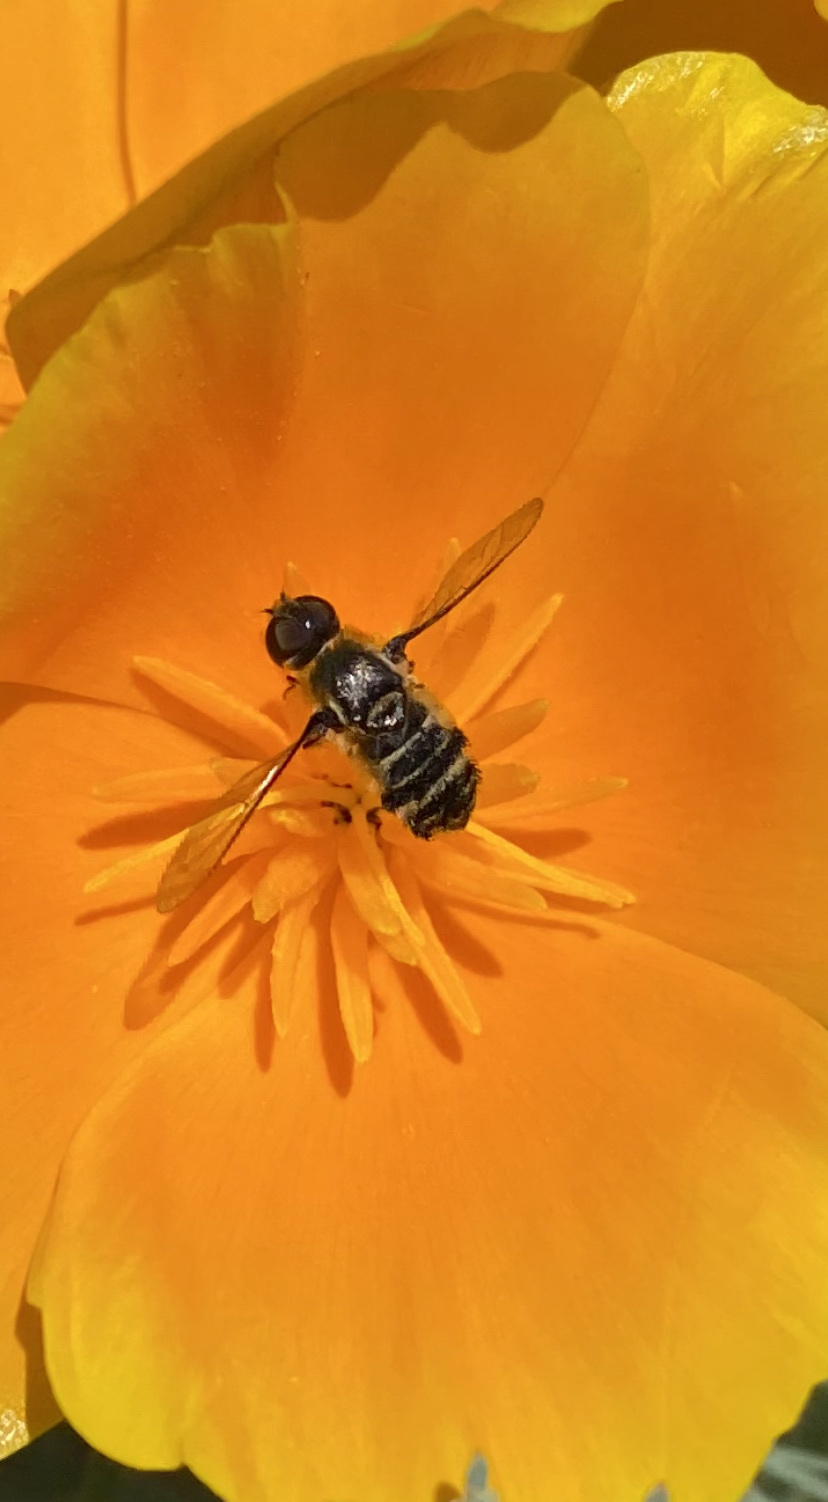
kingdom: Animalia
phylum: Arthropoda
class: Insecta
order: Diptera
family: Bombyliidae
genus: Villa
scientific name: Villa lateralis
